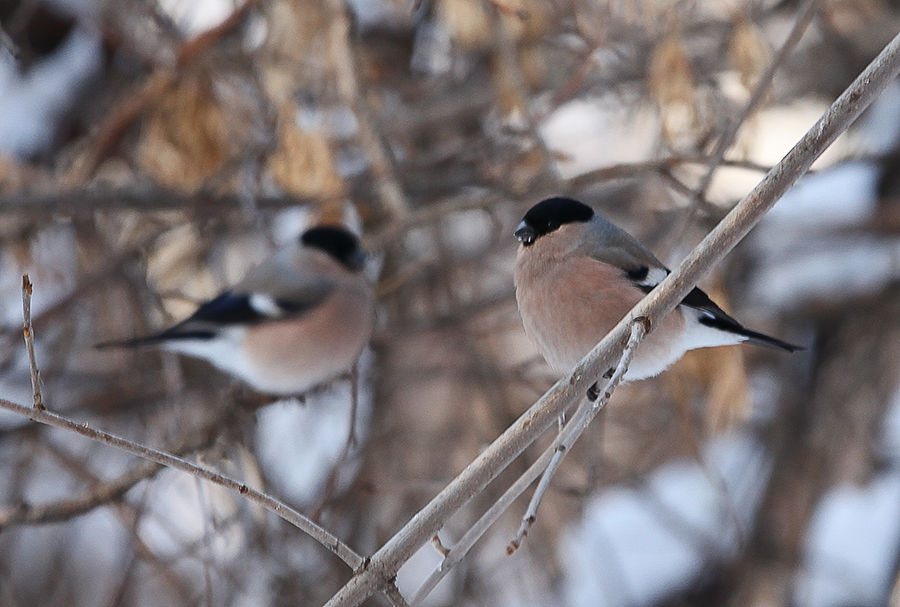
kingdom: Animalia
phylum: Chordata
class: Aves
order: Passeriformes
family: Fringillidae
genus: Pyrrhula
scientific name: Pyrrhula pyrrhula
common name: Eurasian bullfinch
